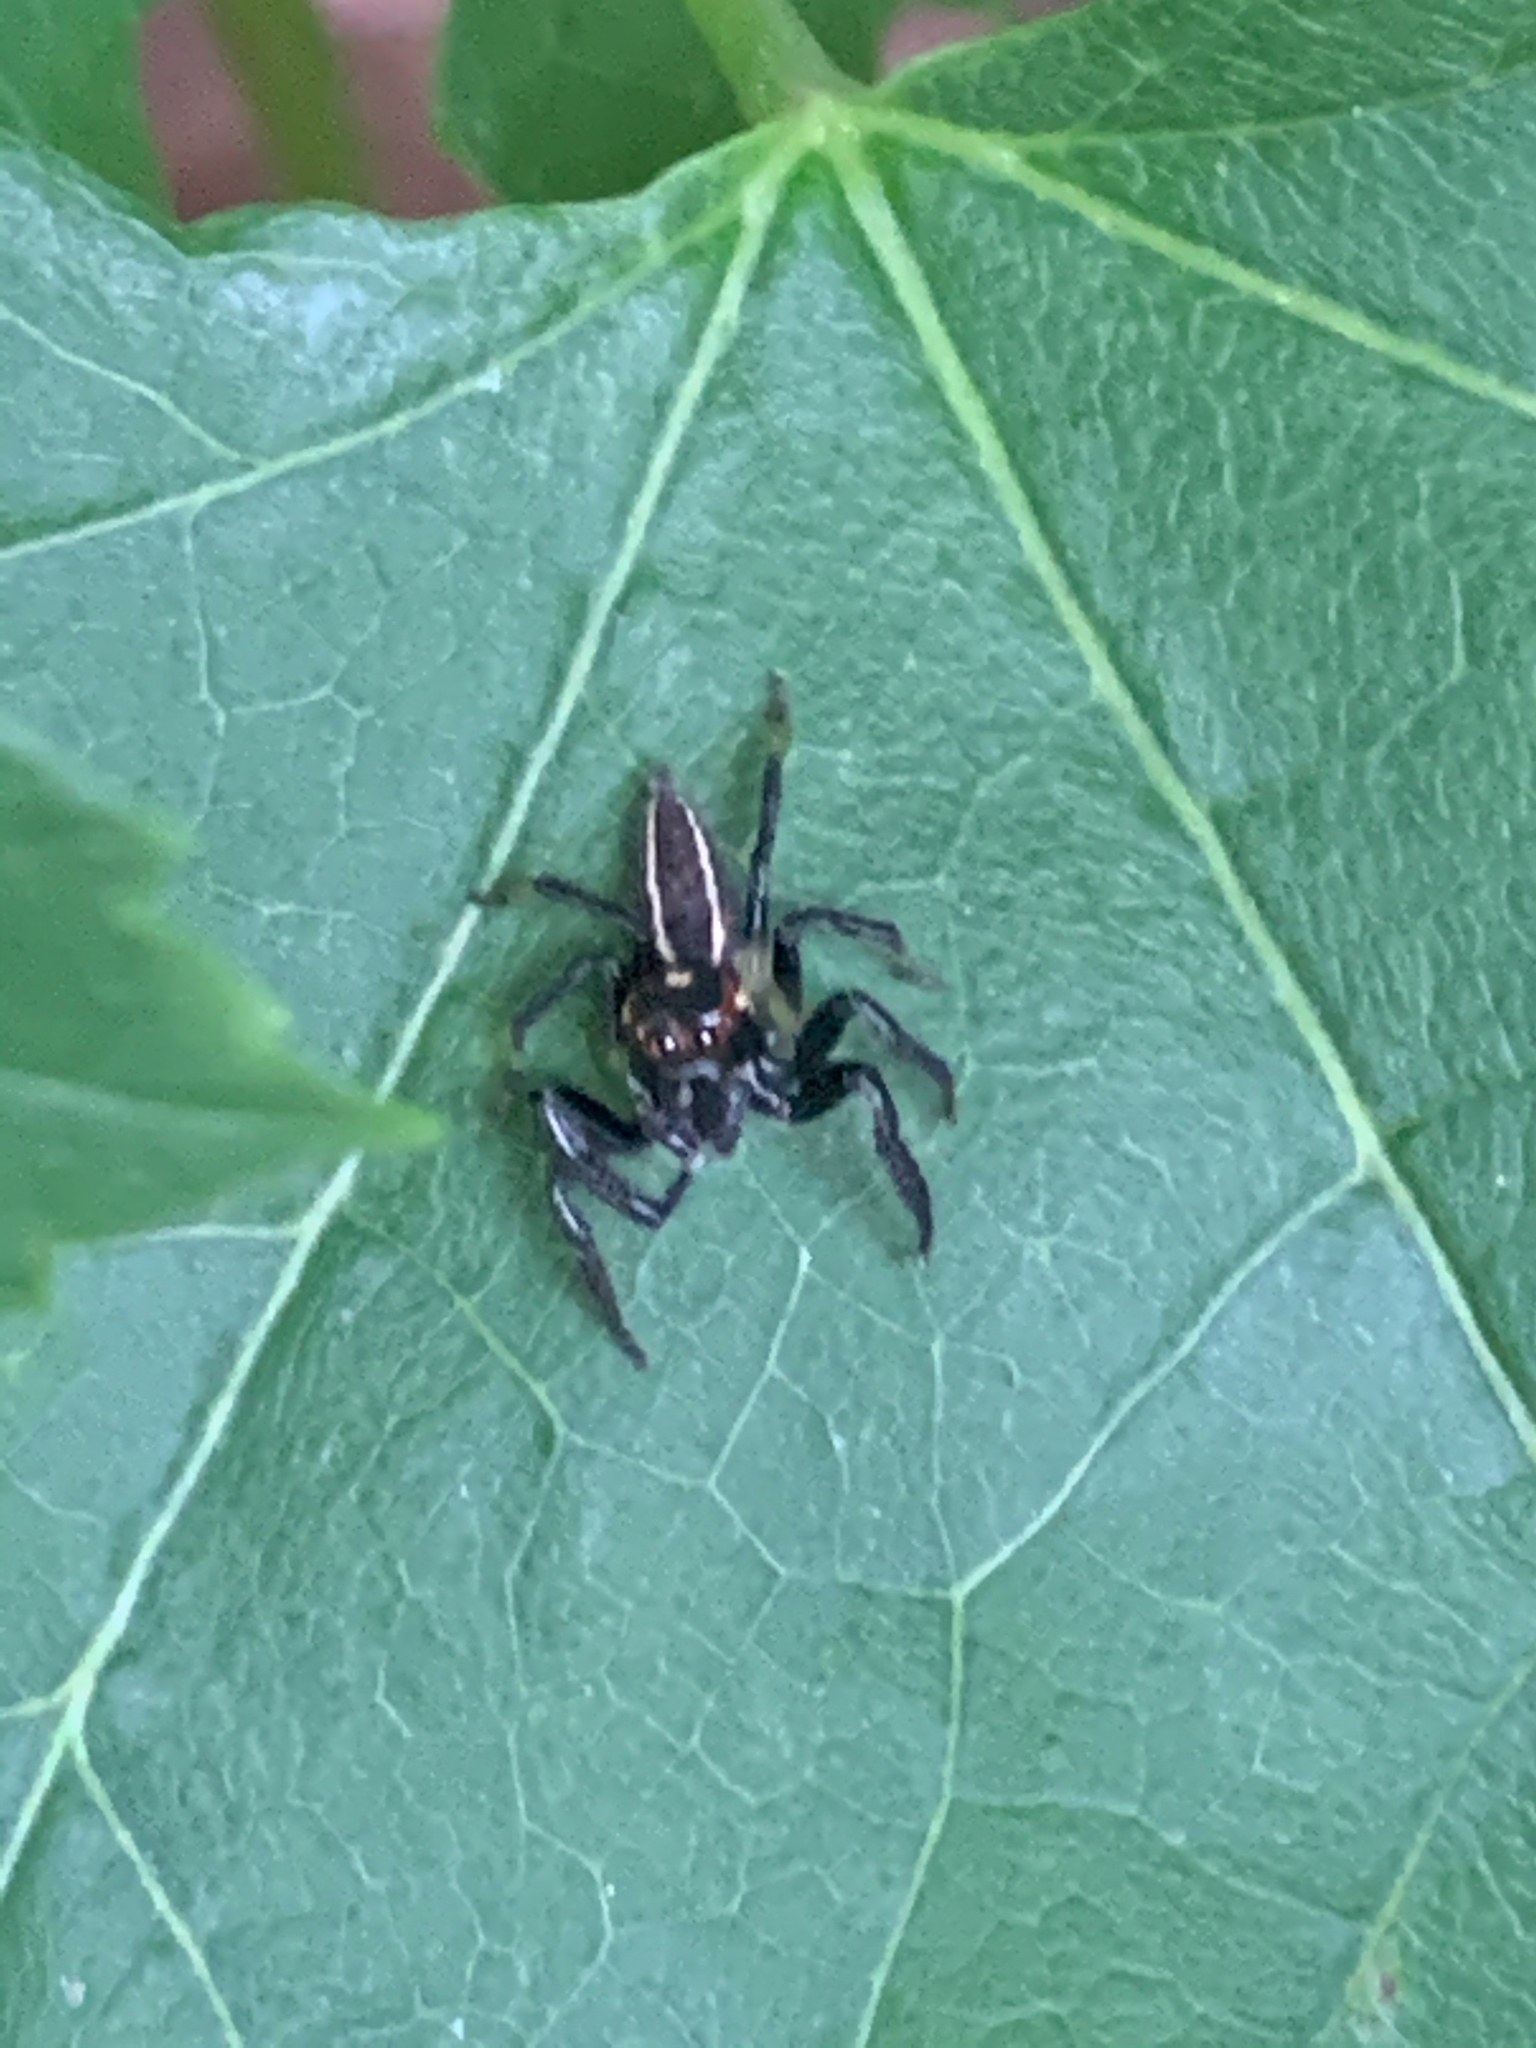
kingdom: Animalia
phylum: Arthropoda
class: Arachnida
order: Araneae
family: Salticidae
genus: Colonus
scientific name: Colonus sylvanus
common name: Jumping spiders
